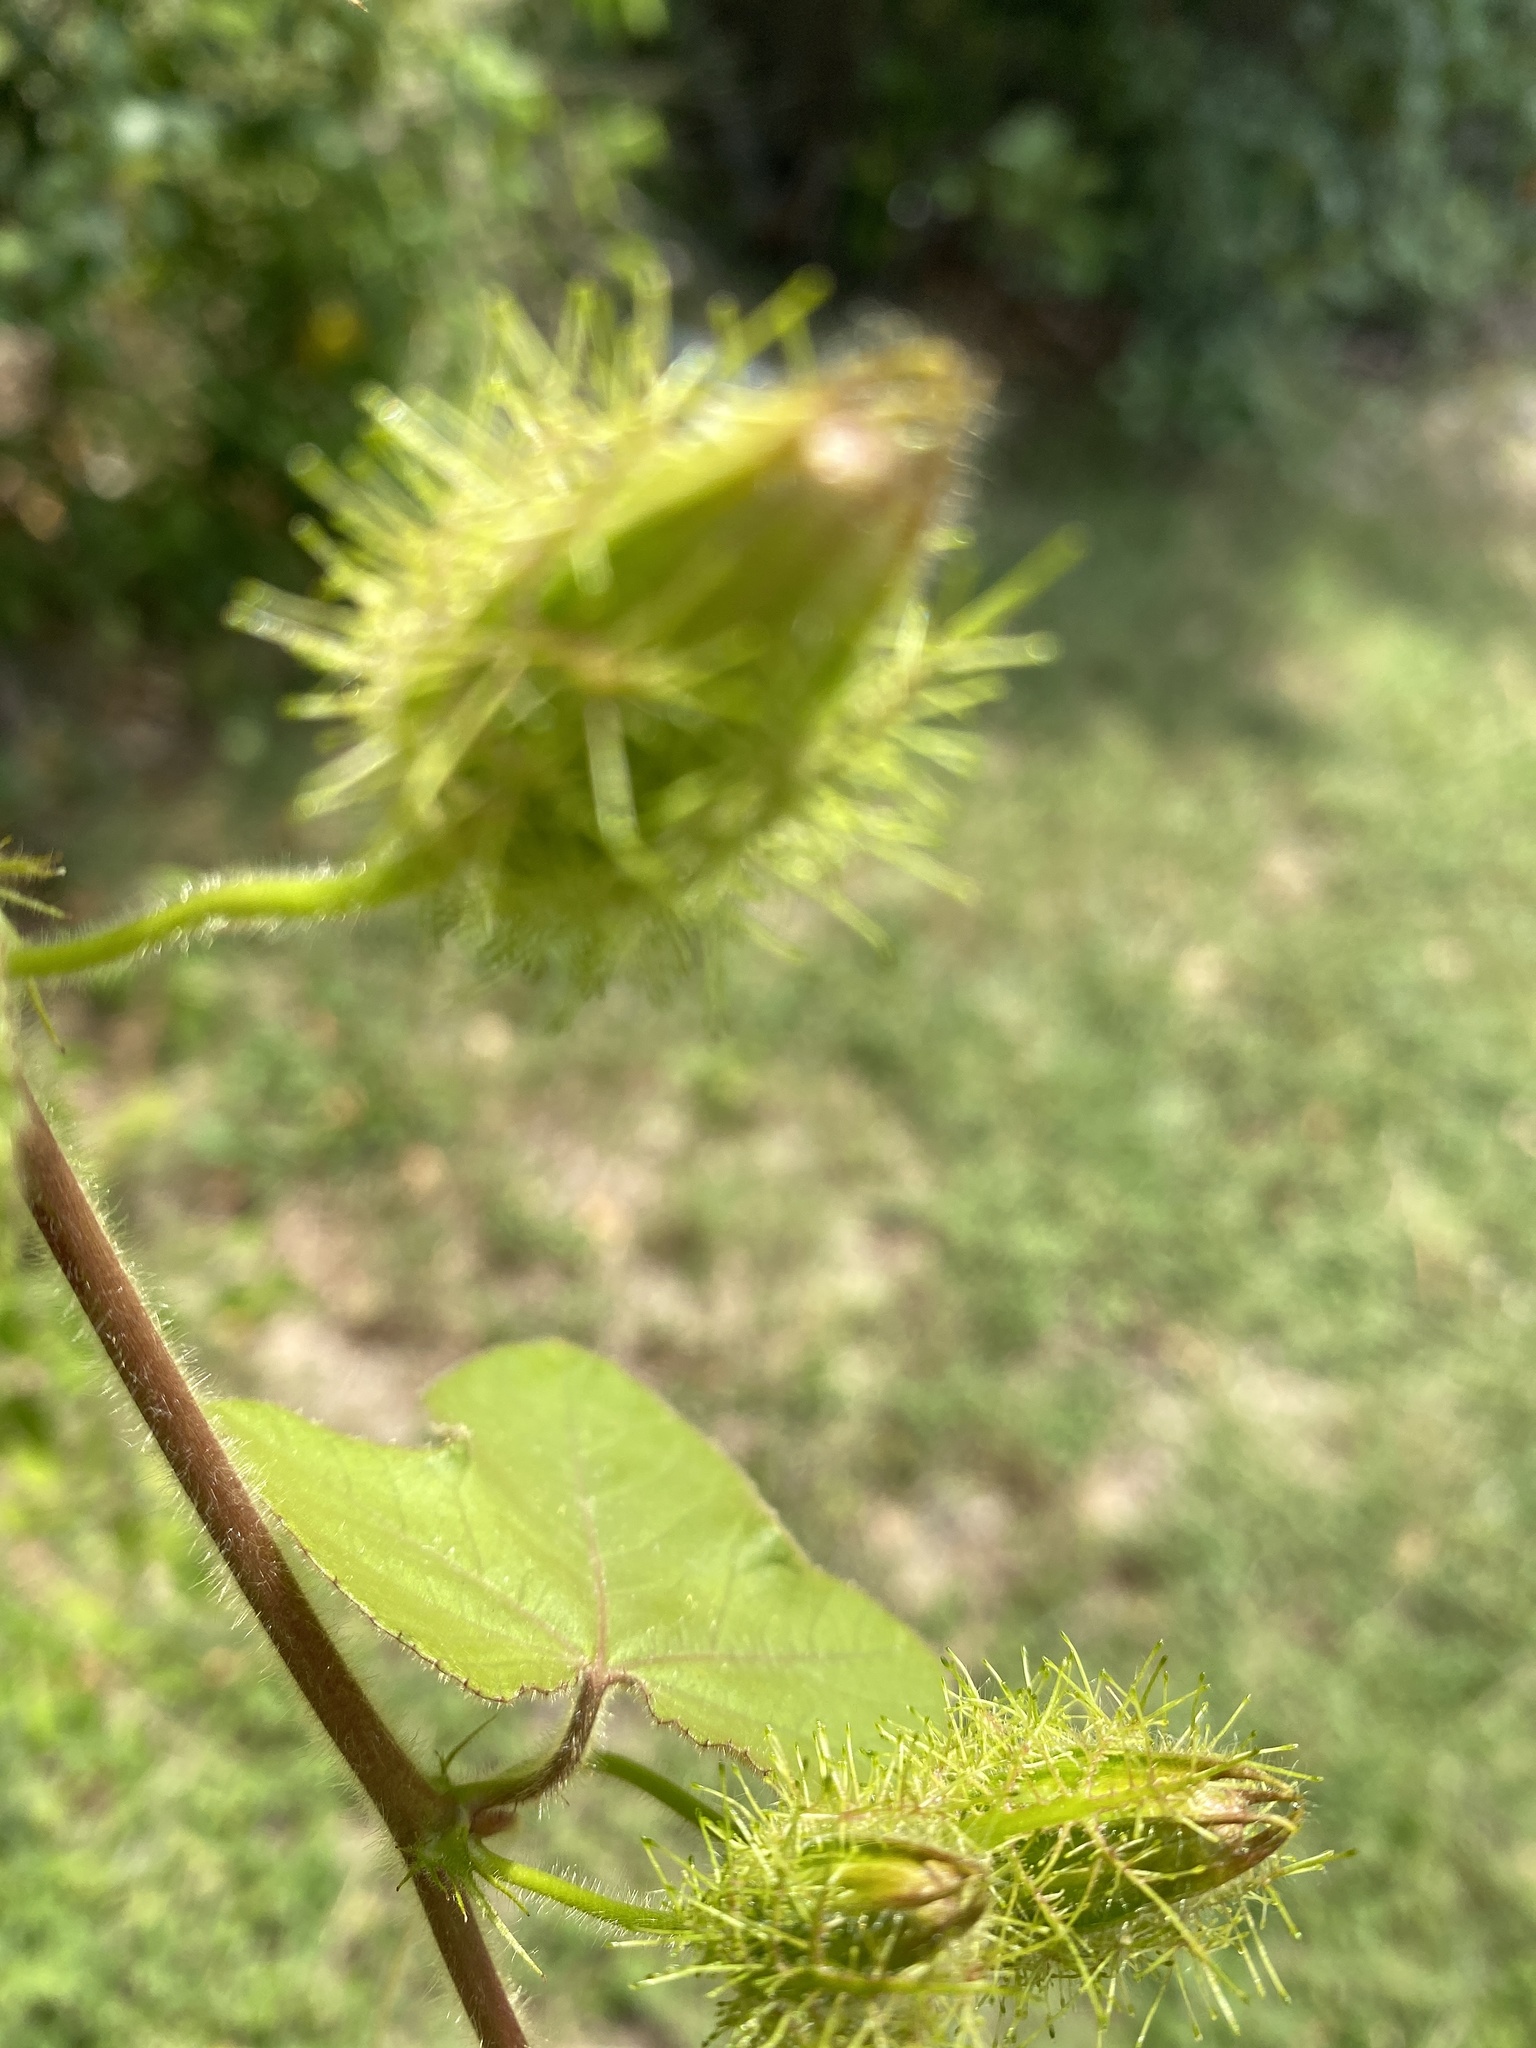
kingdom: Plantae
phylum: Tracheophyta
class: Magnoliopsida
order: Malpighiales
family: Passifloraceae
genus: Passiflora
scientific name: Passiflora foetida
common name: Fetid passionflower
